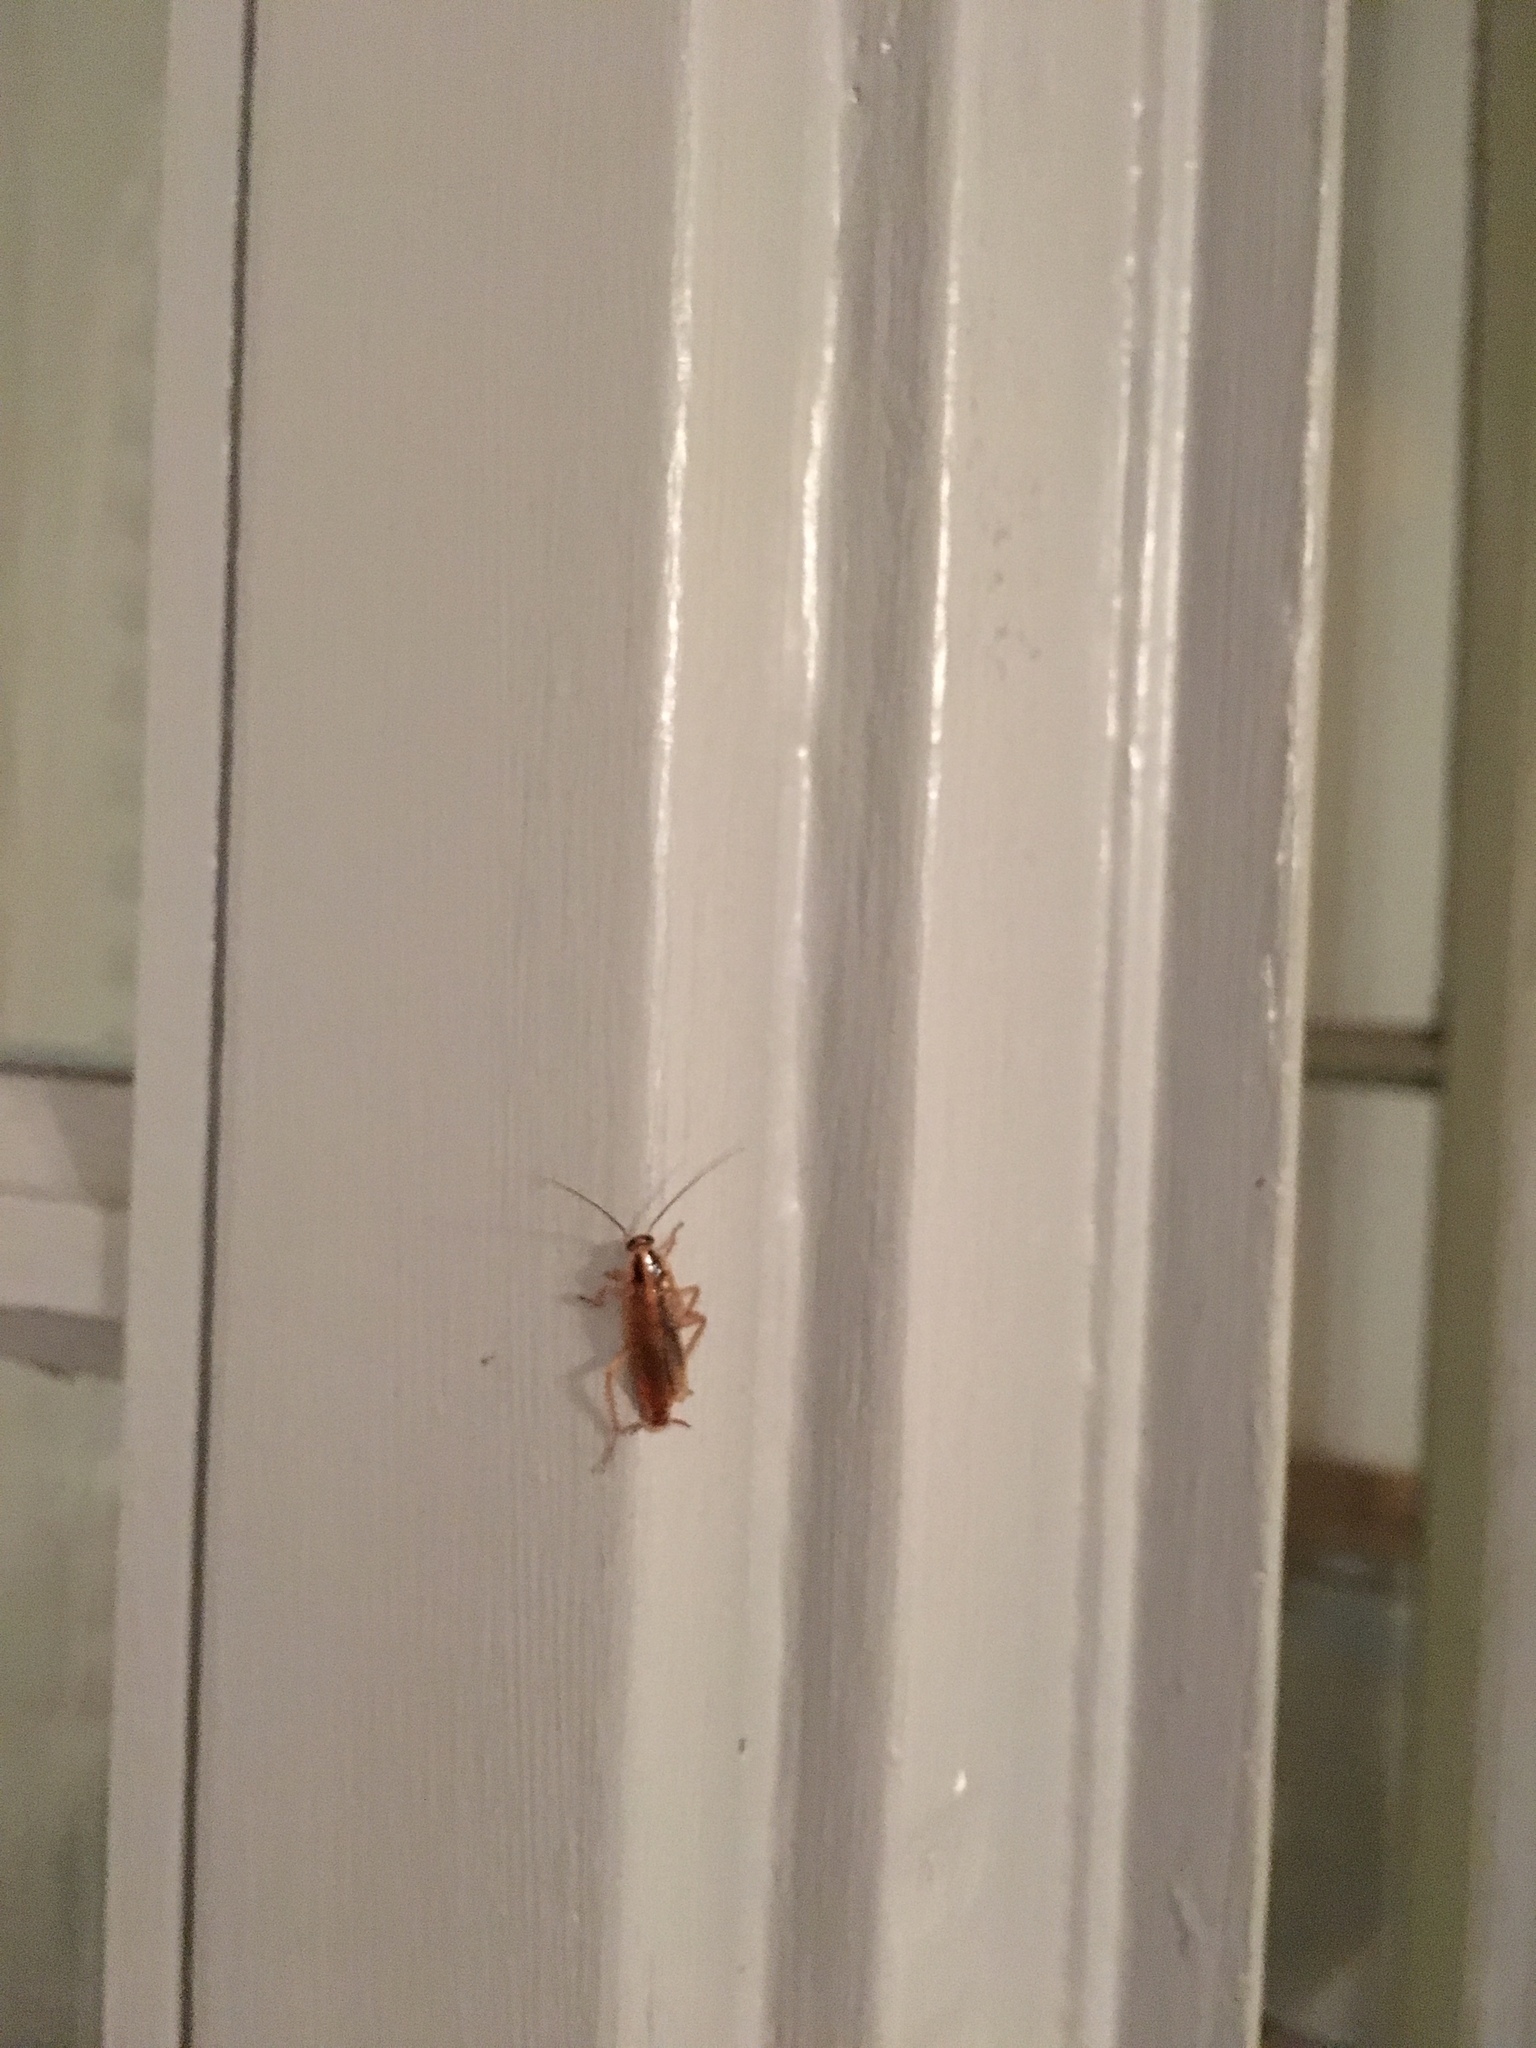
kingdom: Animalia
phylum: Arthropoda
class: Insecta
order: Blattodea
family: Ectobiidae
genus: Blattella
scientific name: Blattella germanica
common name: German cockroach
